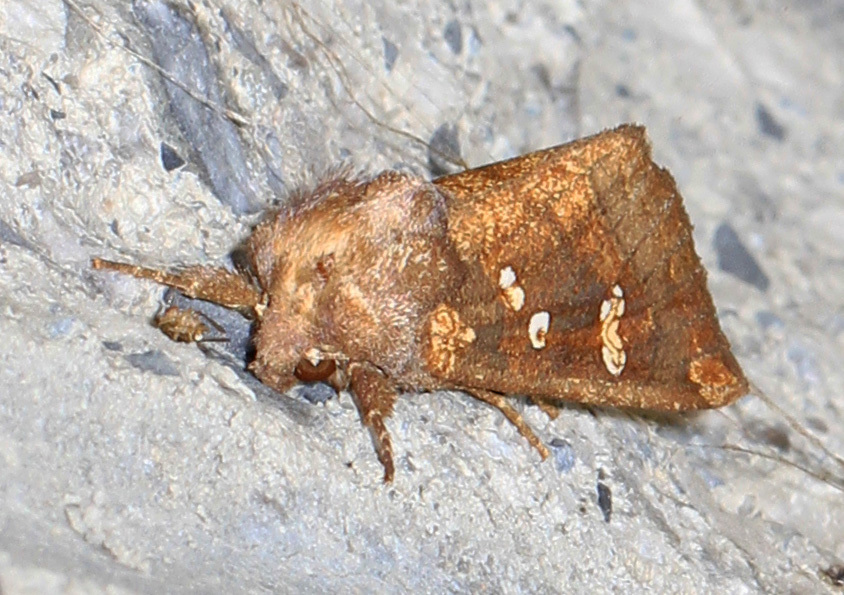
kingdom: Animalia
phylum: Arthropoda
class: Insecta
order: Lepidoptera
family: Noctuidae
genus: Papaipema
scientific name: Papaipema duovata
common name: Seaside golden borer moth
